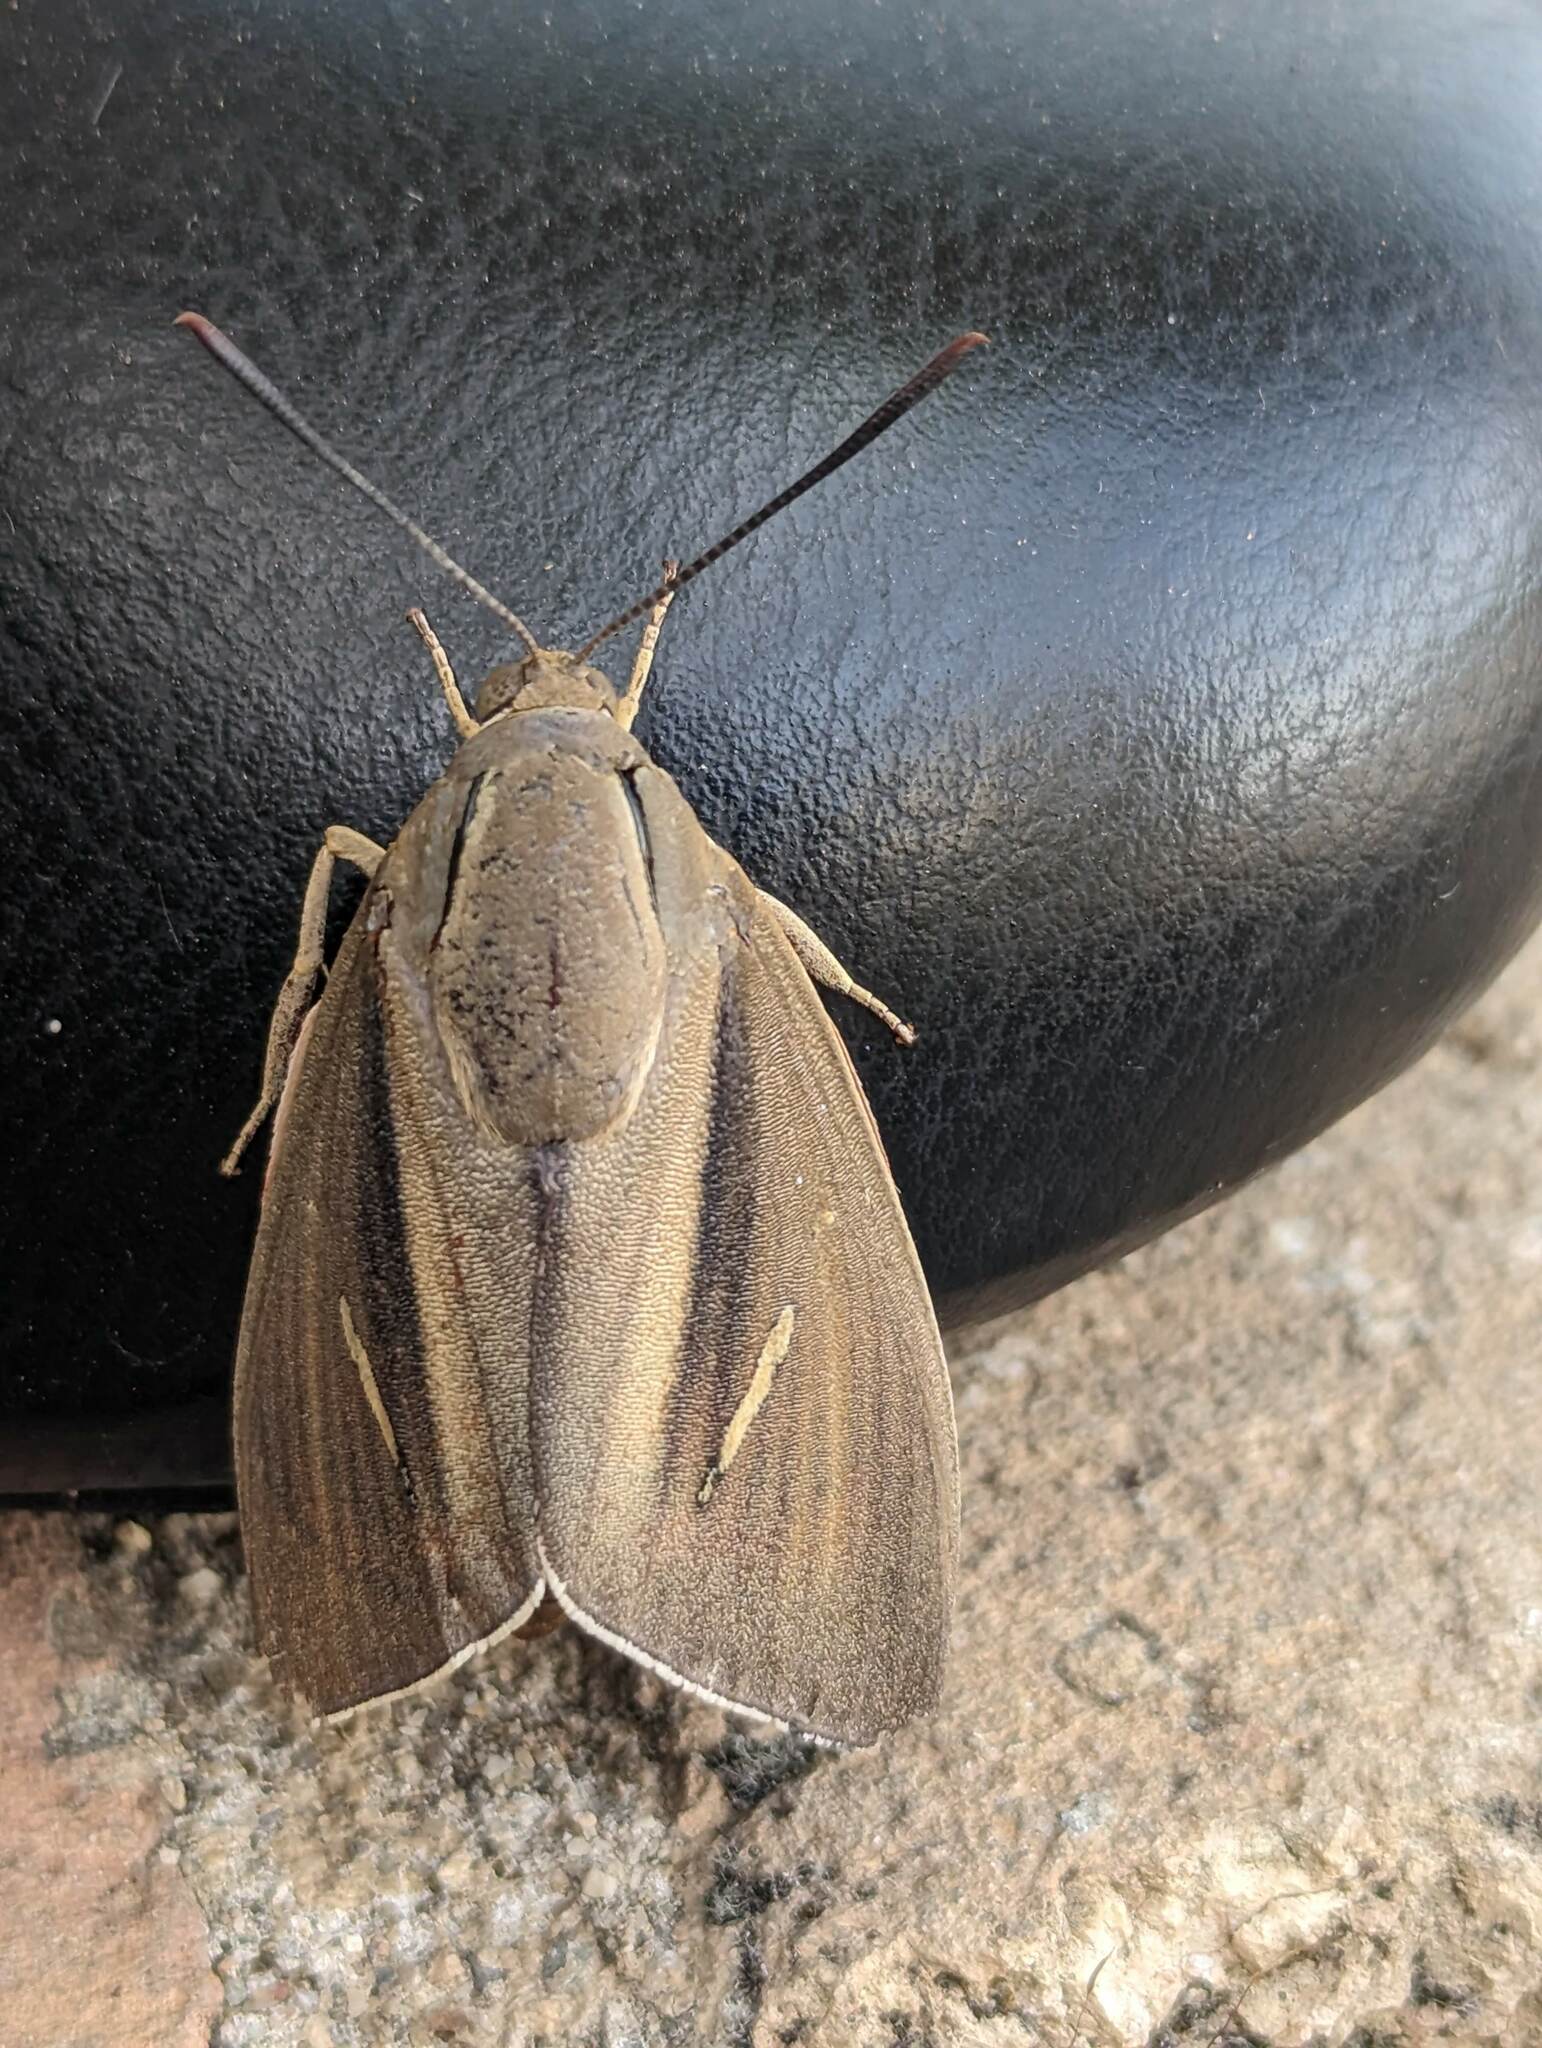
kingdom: Animalia
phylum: Arthropoda
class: Insecta
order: Lepidoptera
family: Castniidae
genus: Paysandisia
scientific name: Paysandisia archon
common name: Palm moth
